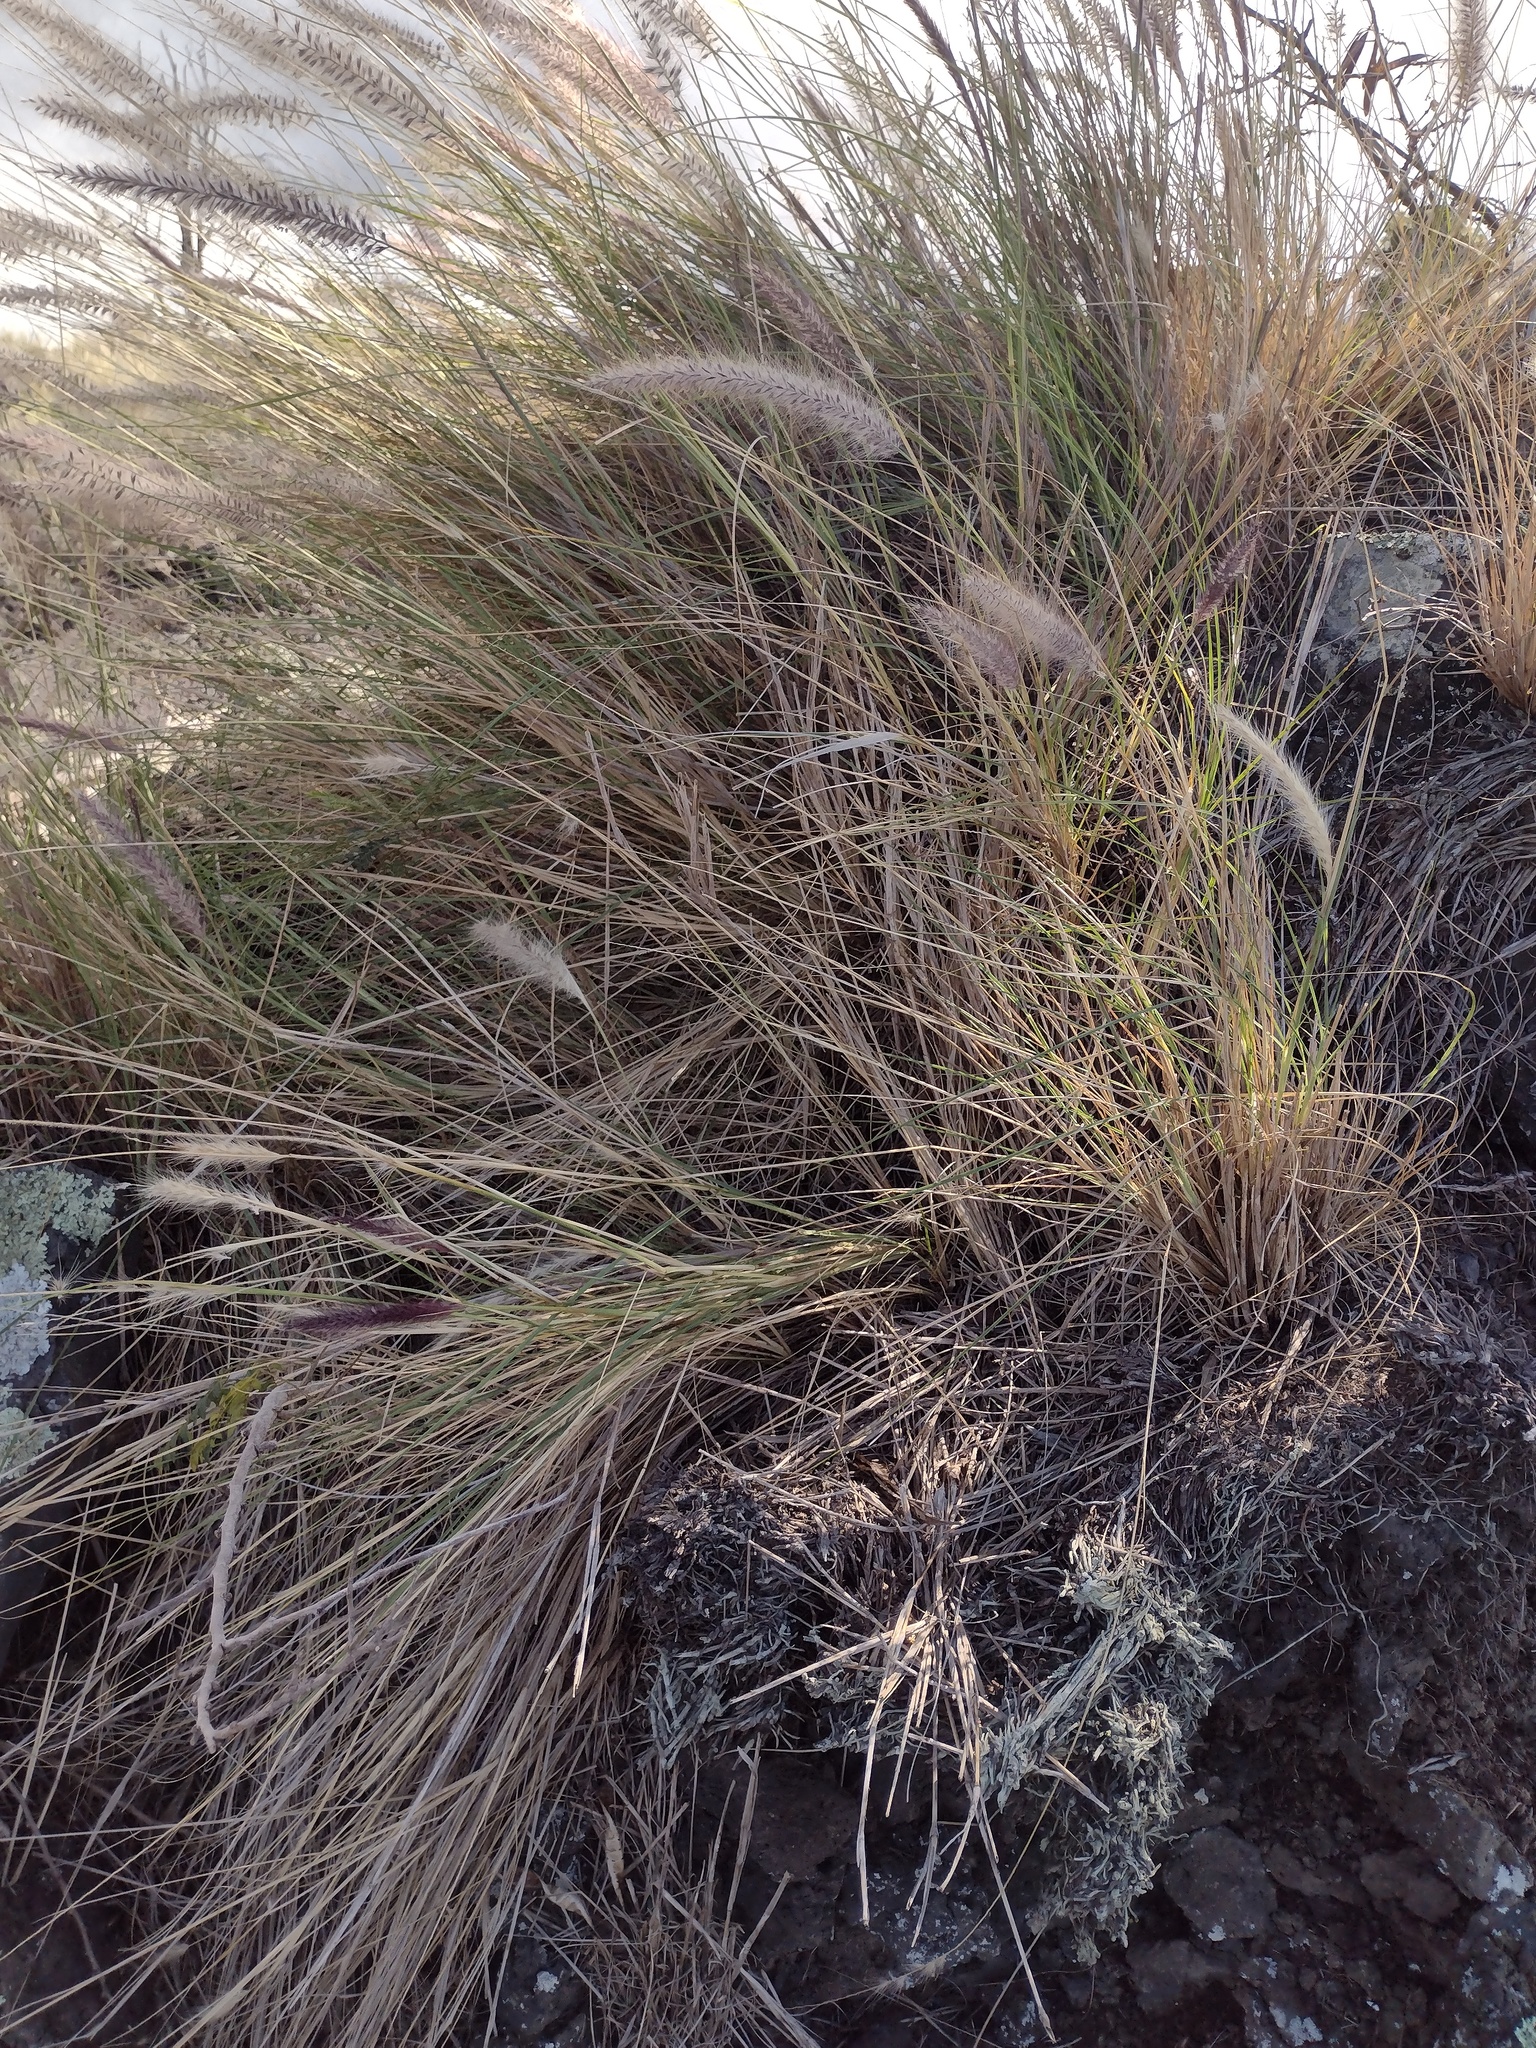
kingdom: Plantae
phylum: Tracheophyta
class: Liliopsida
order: Poales
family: Poaceae
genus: Cenchrus
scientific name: Cenchrus setaceus
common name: Crimson fountaingrass
